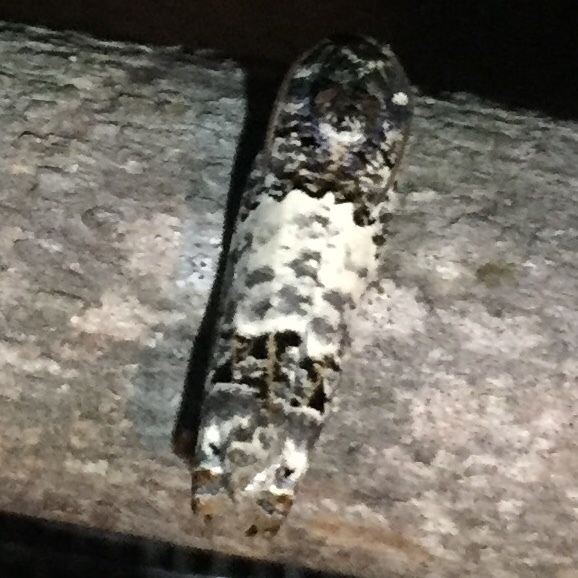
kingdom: Animalia
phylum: Arthropoda
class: Insecta
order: Lepidoptera
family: Tortricidae
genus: Epiblema
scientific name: Epiblema carolinana
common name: Gray-blotched epiblema moth
